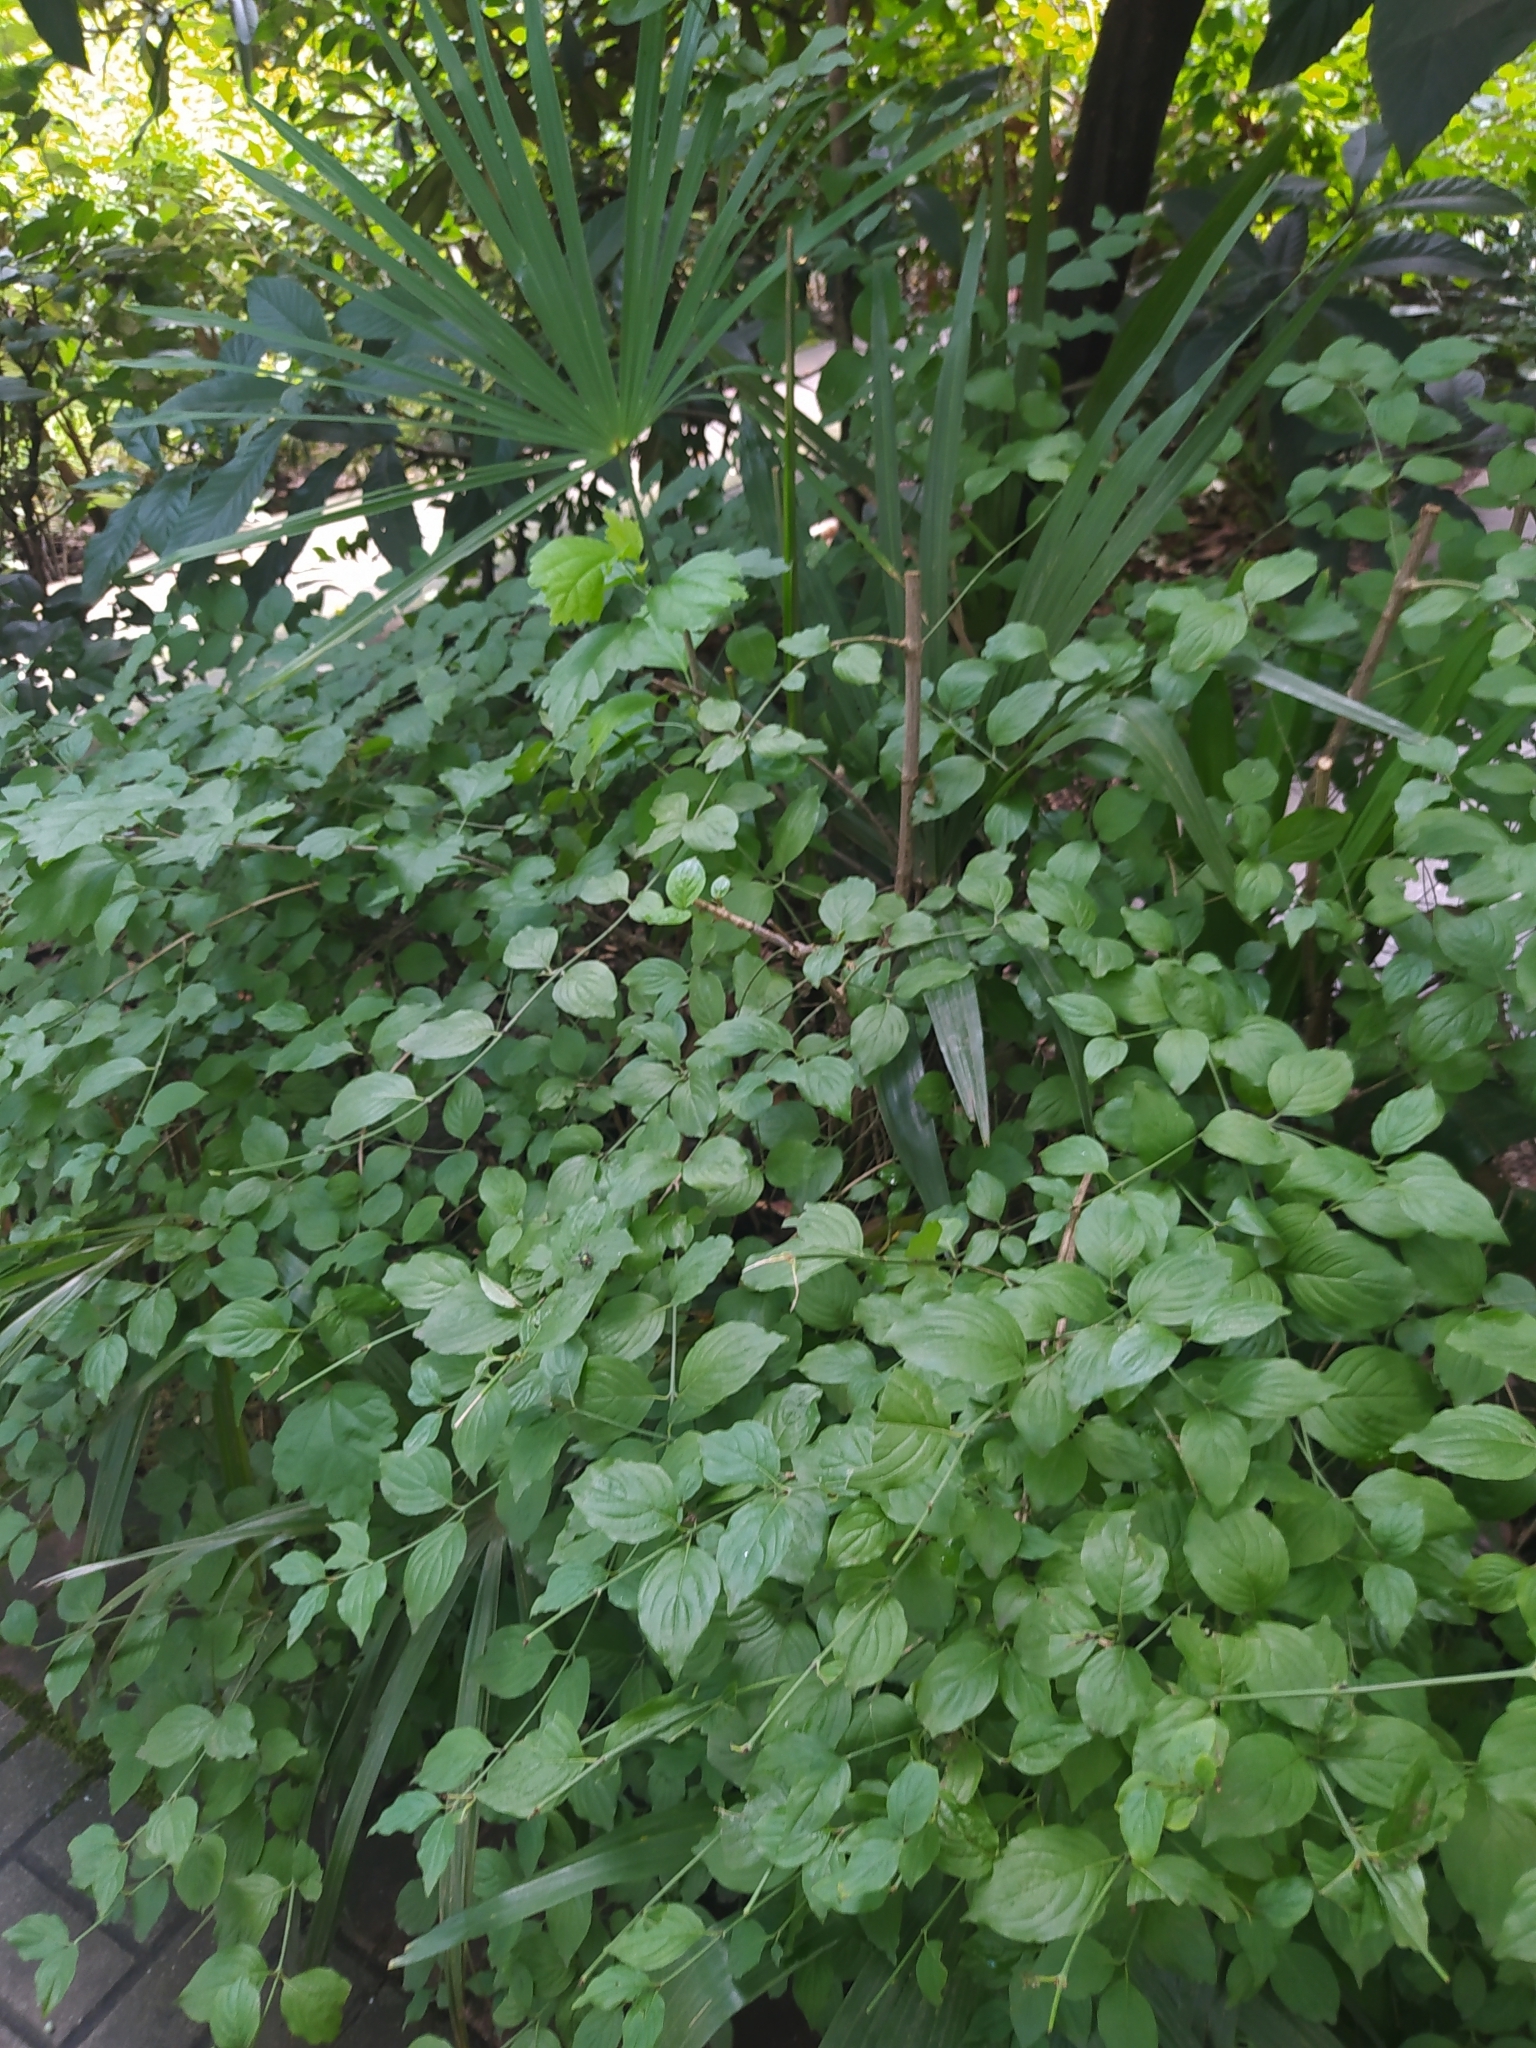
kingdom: Plantae
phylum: Tracheophyta
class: Liliopsida
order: Arecales
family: Arecaceae
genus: Trachycarpus
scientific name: Trachycarpus fortunei
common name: Chusan palm
